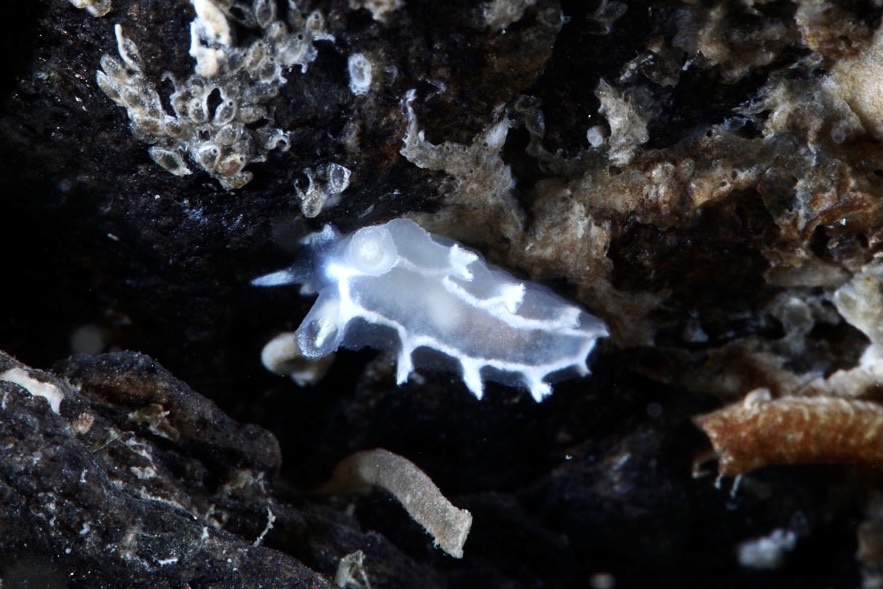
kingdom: Animalia
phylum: Mollusca
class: Gastropoda
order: Nudibranchia
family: Tritoniidae
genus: Duvaucelia
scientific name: Duvaucelia lineata
